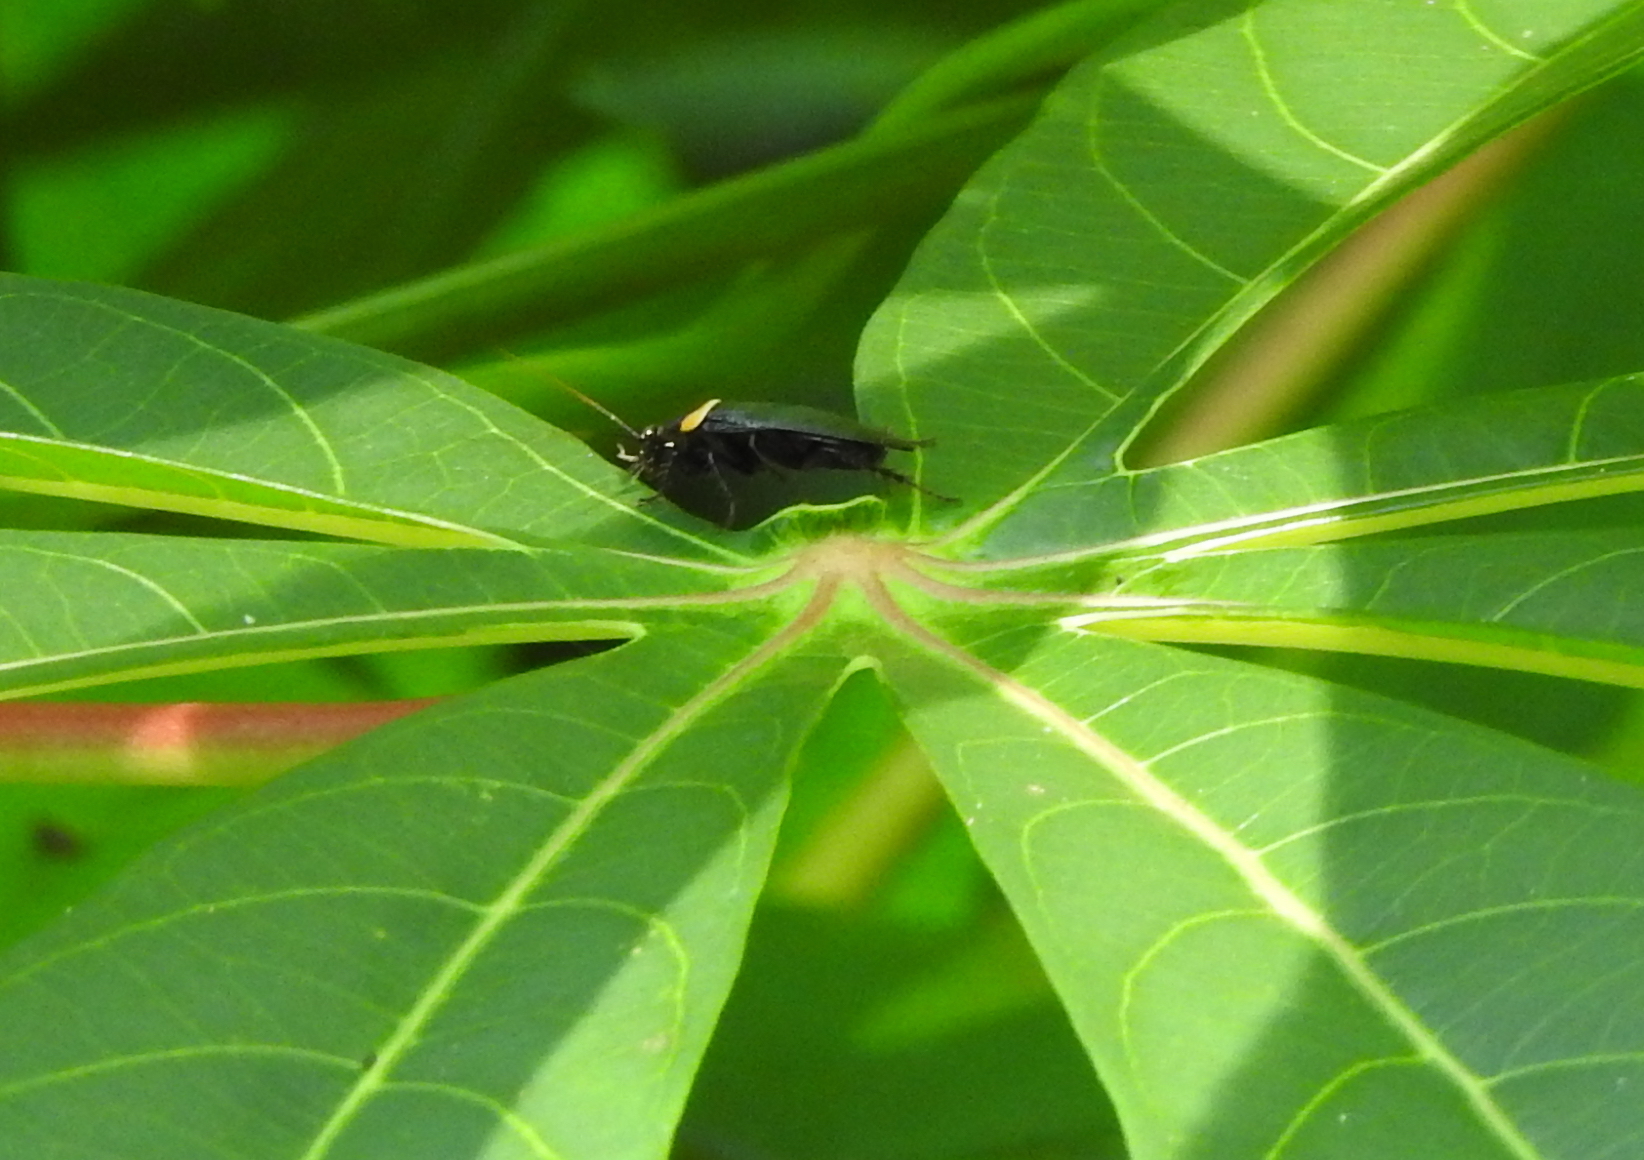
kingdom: Animalia
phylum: Arthropoda
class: Insecta
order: Blattodea
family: Ectobiidae
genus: Hemithyrsocera
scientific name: Hemithyrsocera palliata
